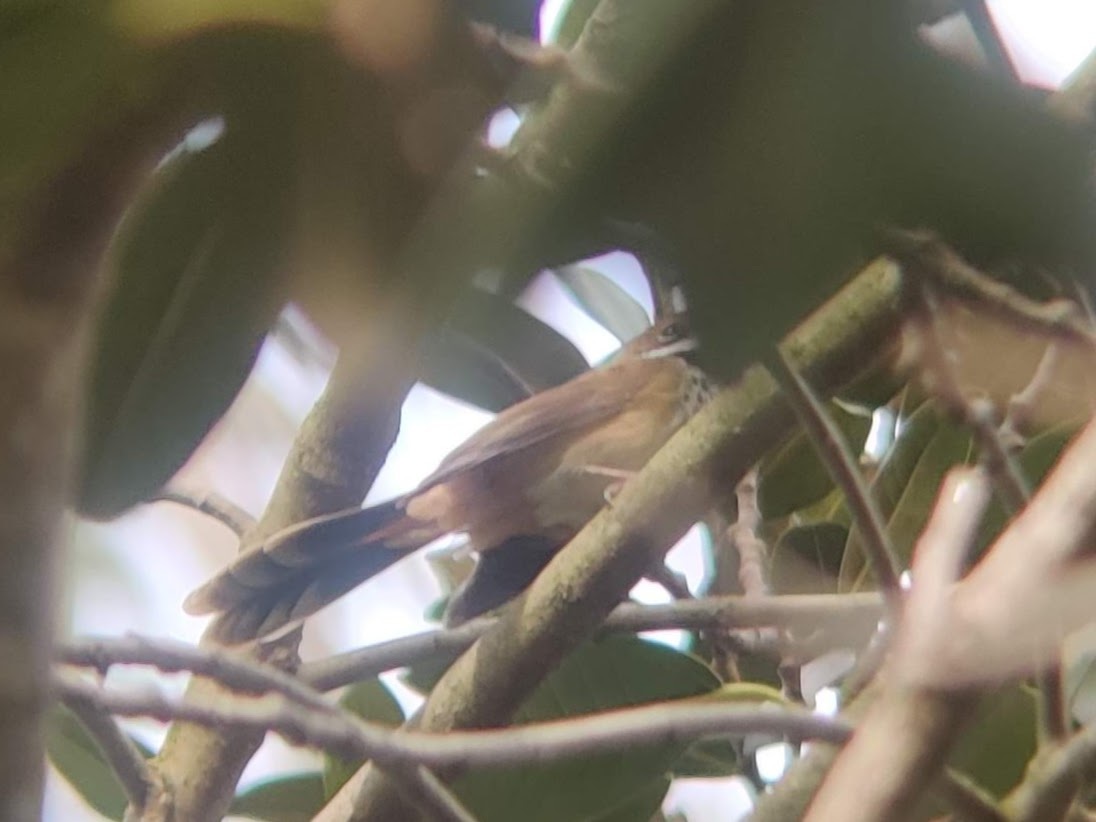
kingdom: Animalia
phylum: Chordata
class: Aves
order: Passeriformes
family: Rhipiduridae
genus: Rhipidura
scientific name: Rhipidura rufifrons
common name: Rufous fantail
